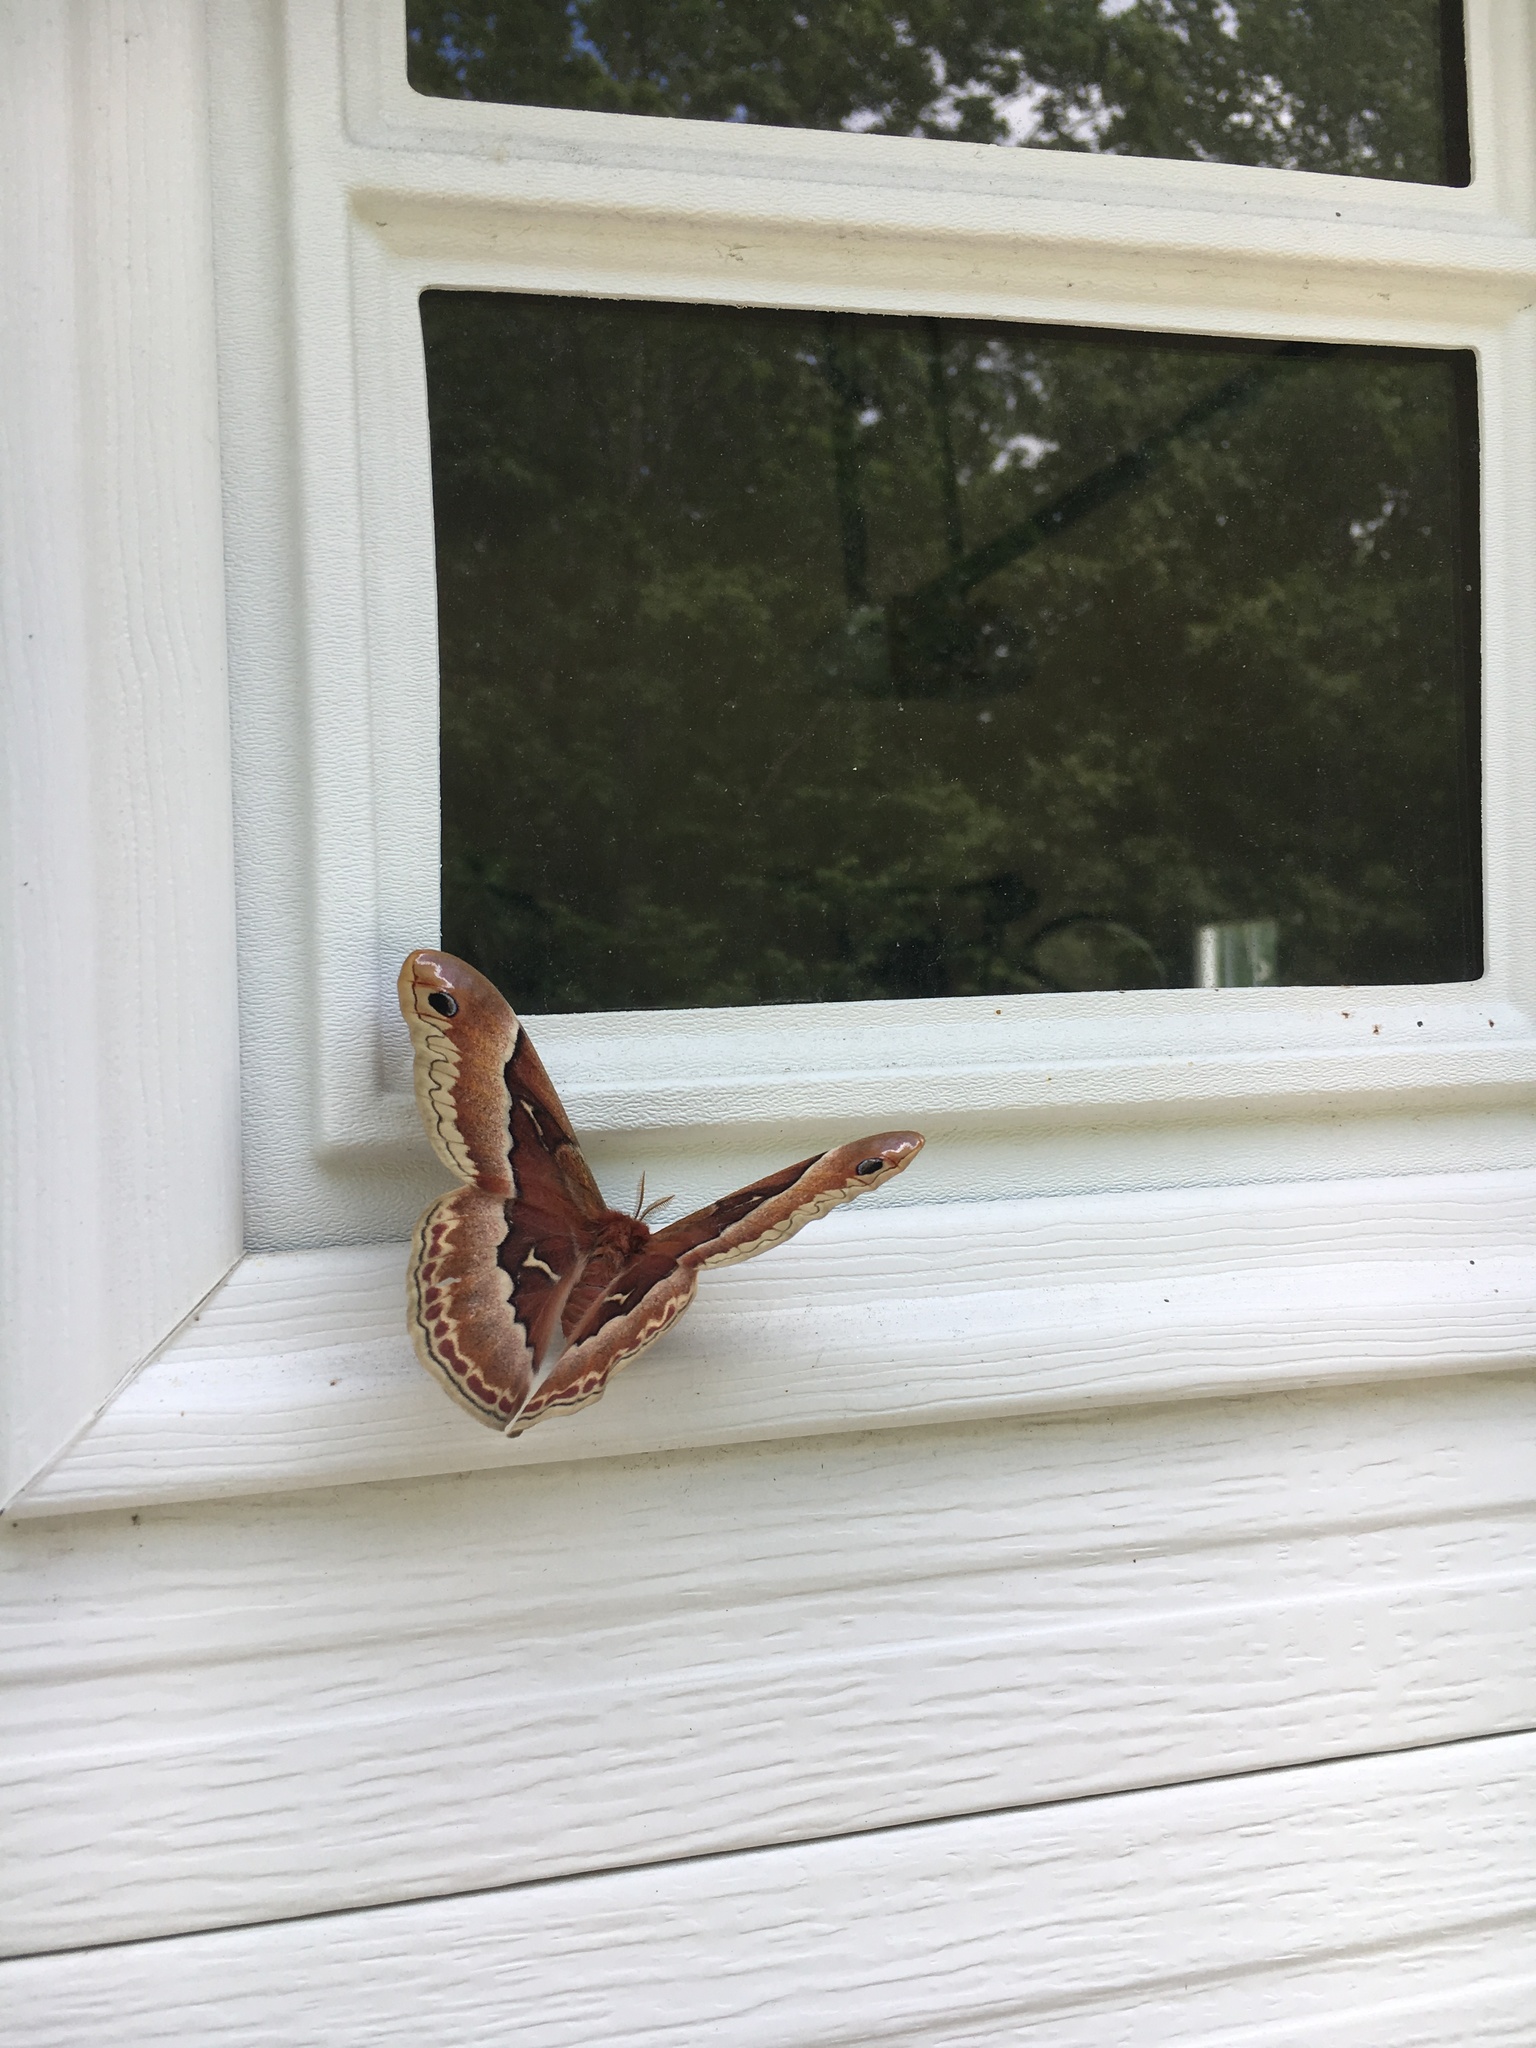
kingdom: Animalia
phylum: Arthropoda
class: Insecta
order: Lepidoptera
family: Saturniidae
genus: Callosamia
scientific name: Callosamia promethea
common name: Promethea silkmoth
